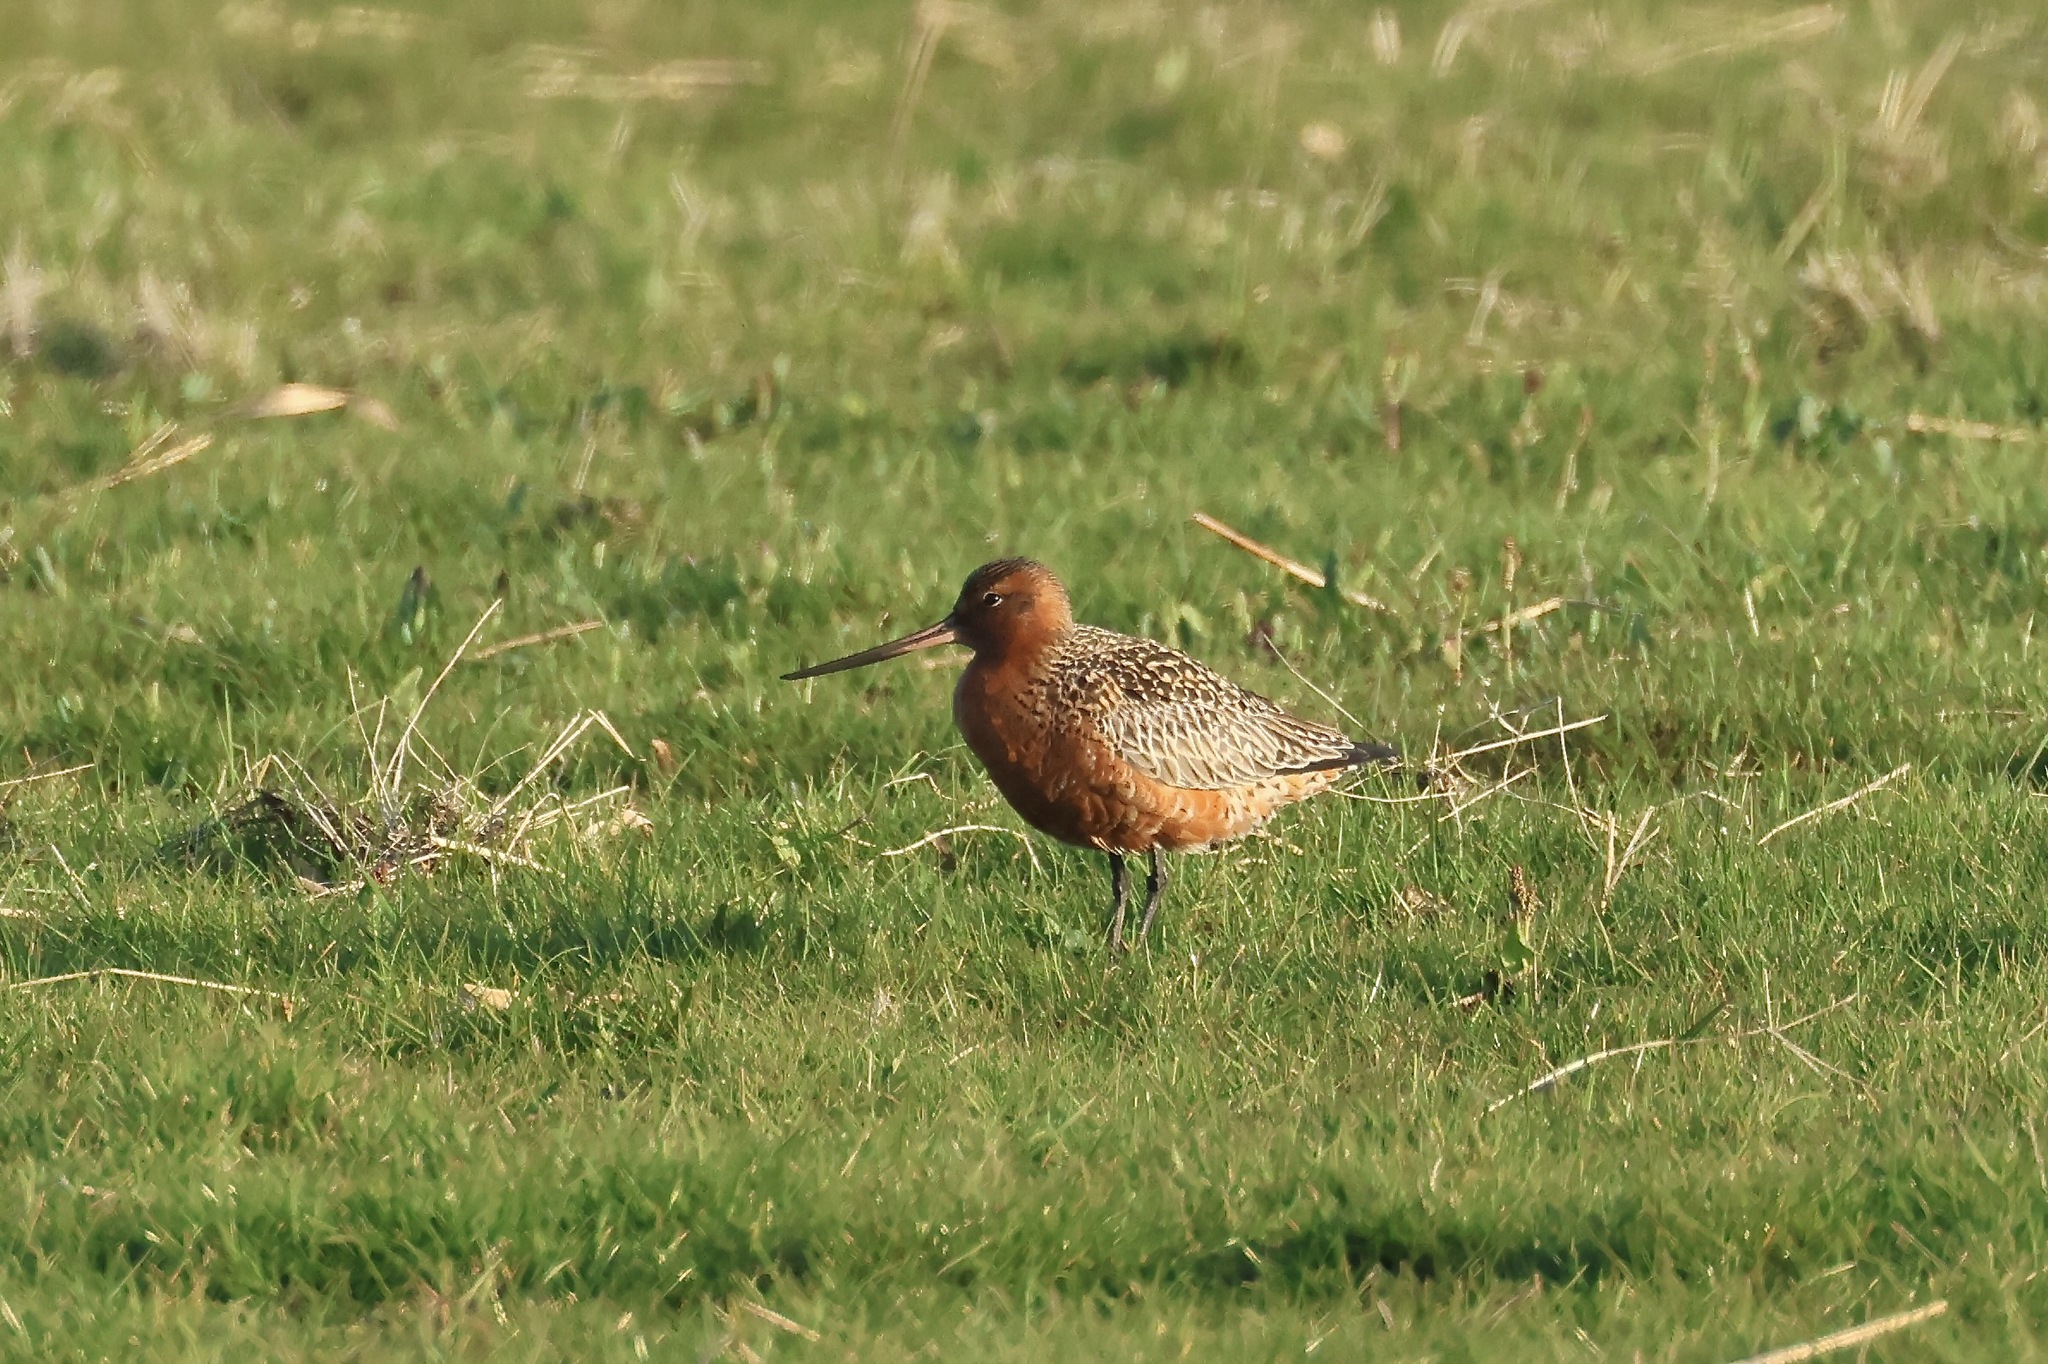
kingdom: Animalia
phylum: Chordata
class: Aves
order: Charadriiformes
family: Scolopacidae
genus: Limosa
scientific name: Limosa lapponica
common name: Bar-tailed godwit
